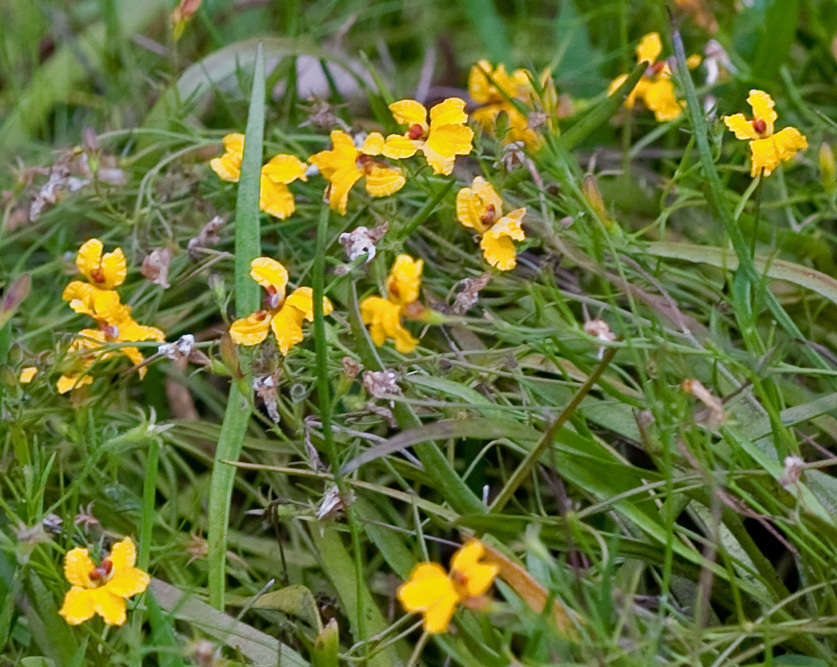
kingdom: Plantae
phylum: Tracheophyta
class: Magnoliopsida
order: Asterales
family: Goodeniaceae
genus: Goodenia
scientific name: Goodenia humilis
